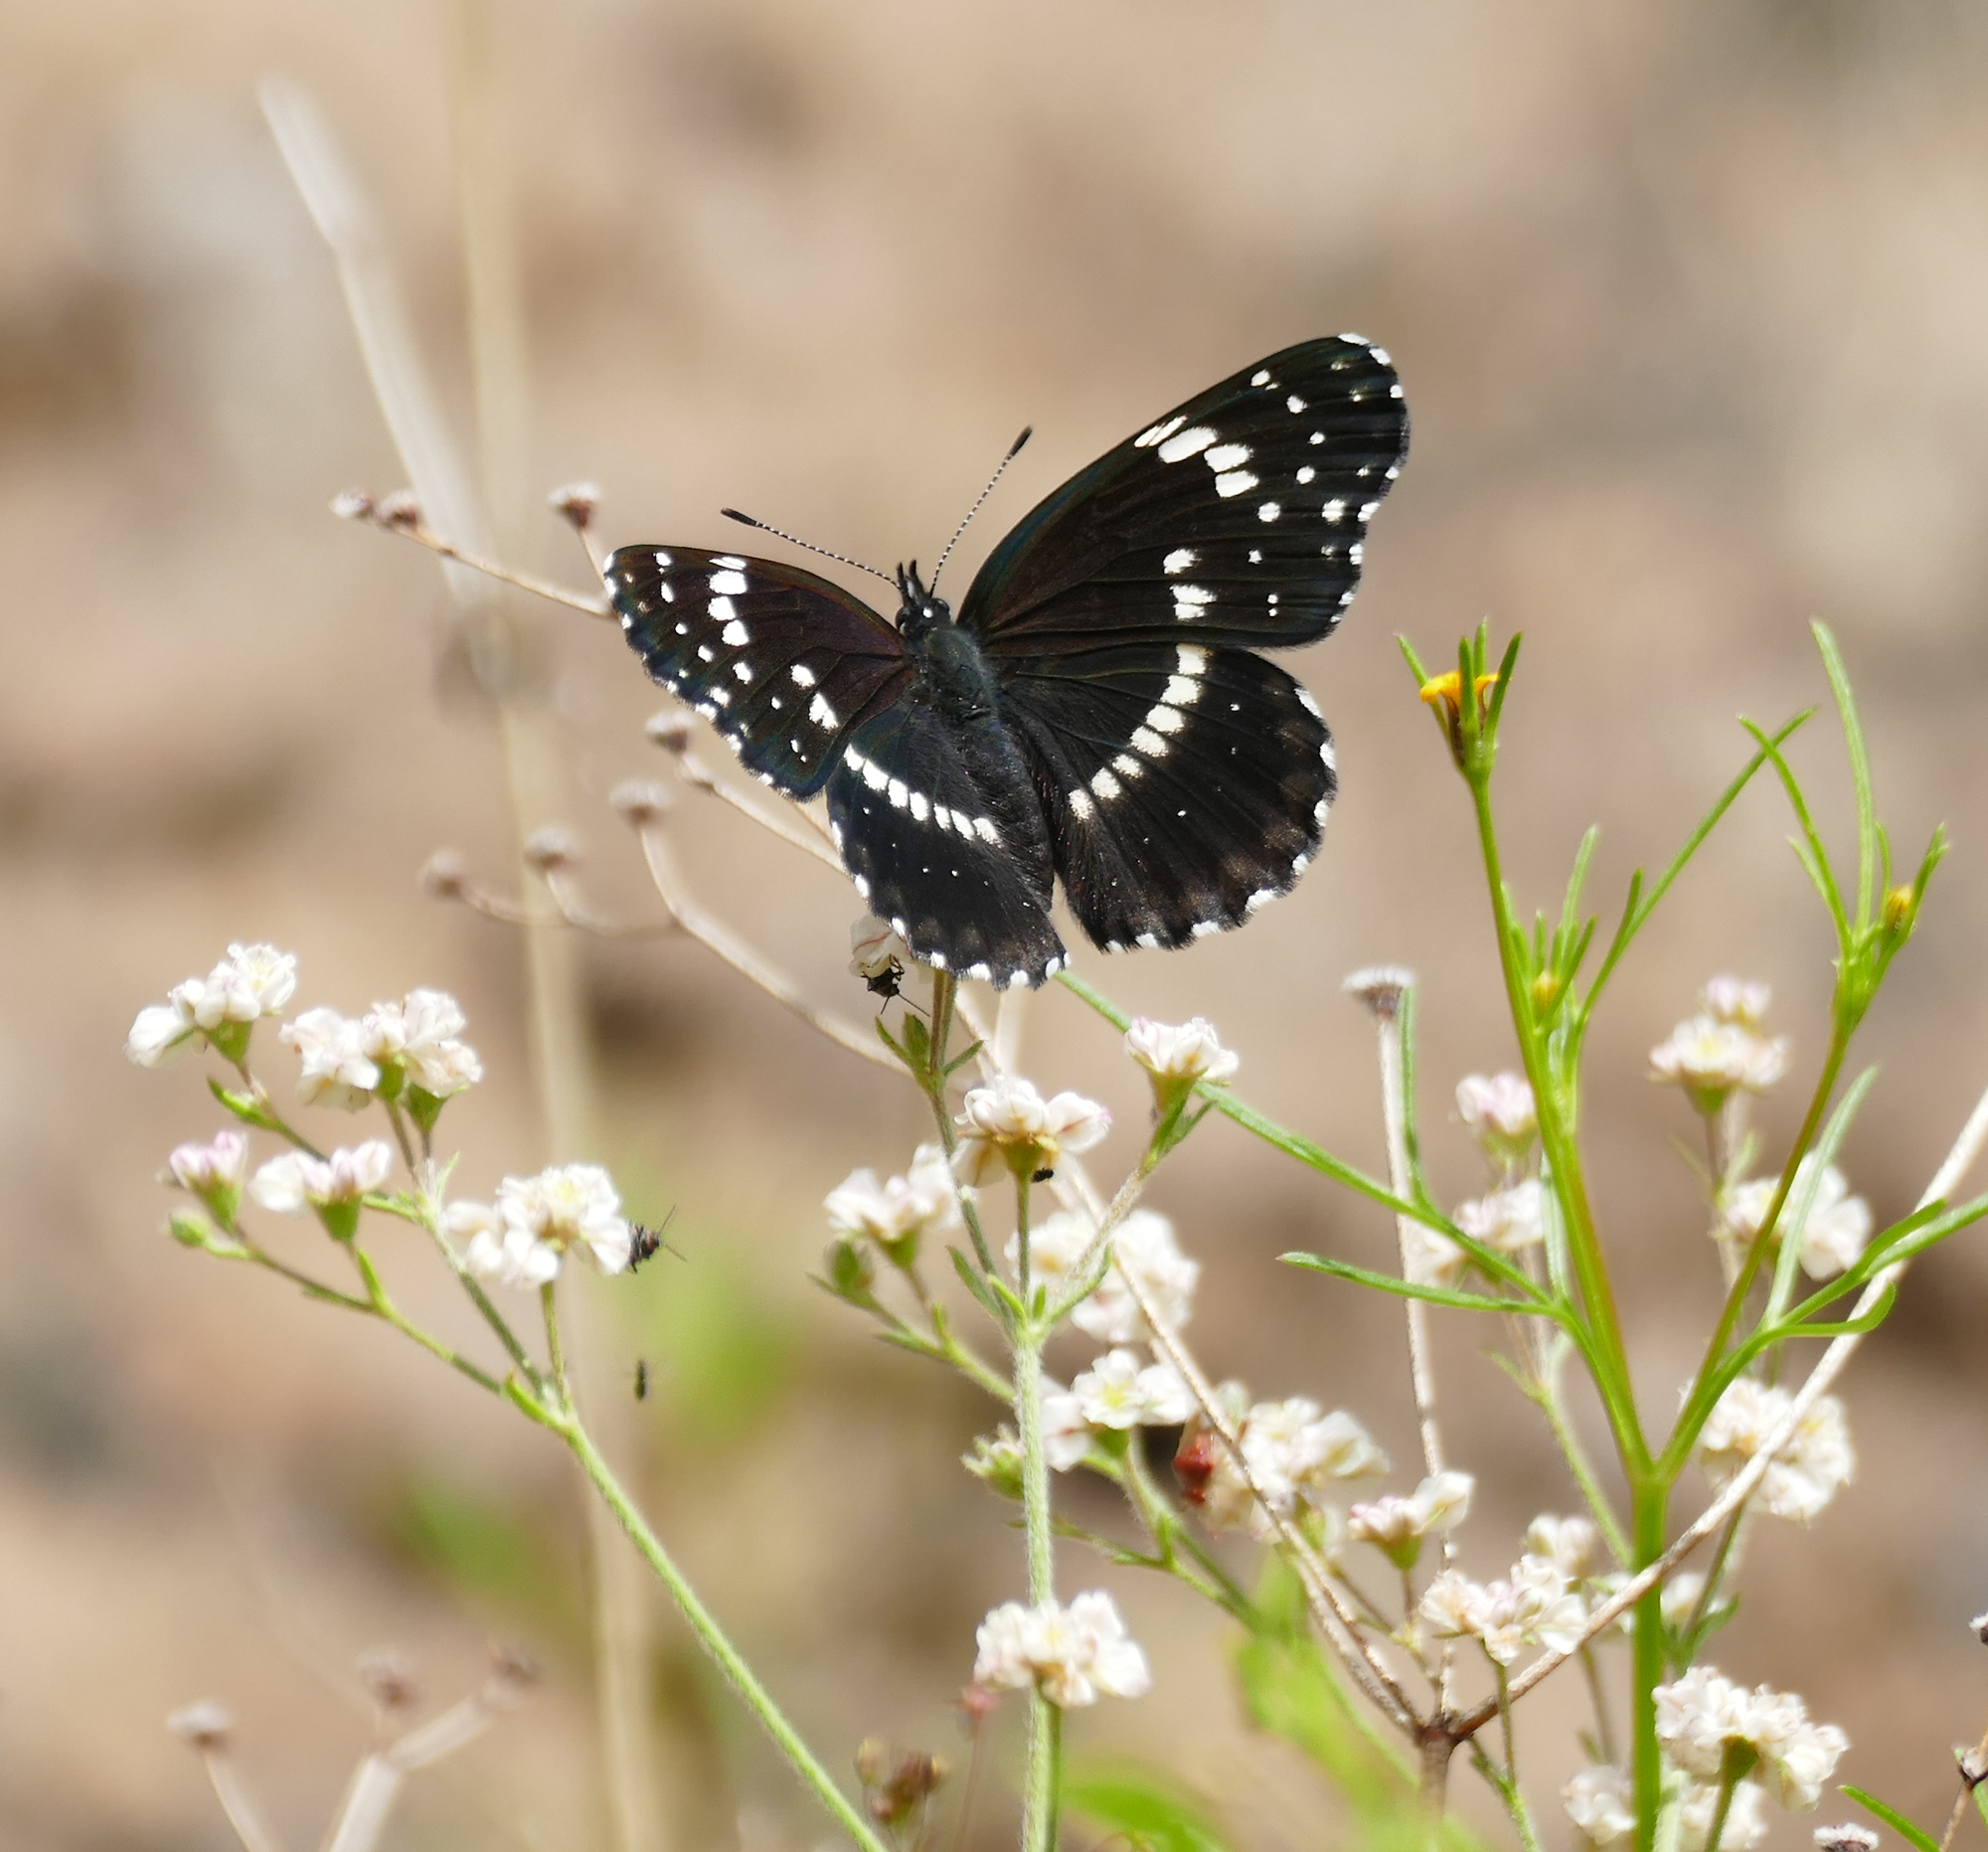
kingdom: Animalia
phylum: Arthropoda
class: Insecta
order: Lepidoptera
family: Nymphalidae
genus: Chlosyne
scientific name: Chlosyne lacinia
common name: Bordered patch
